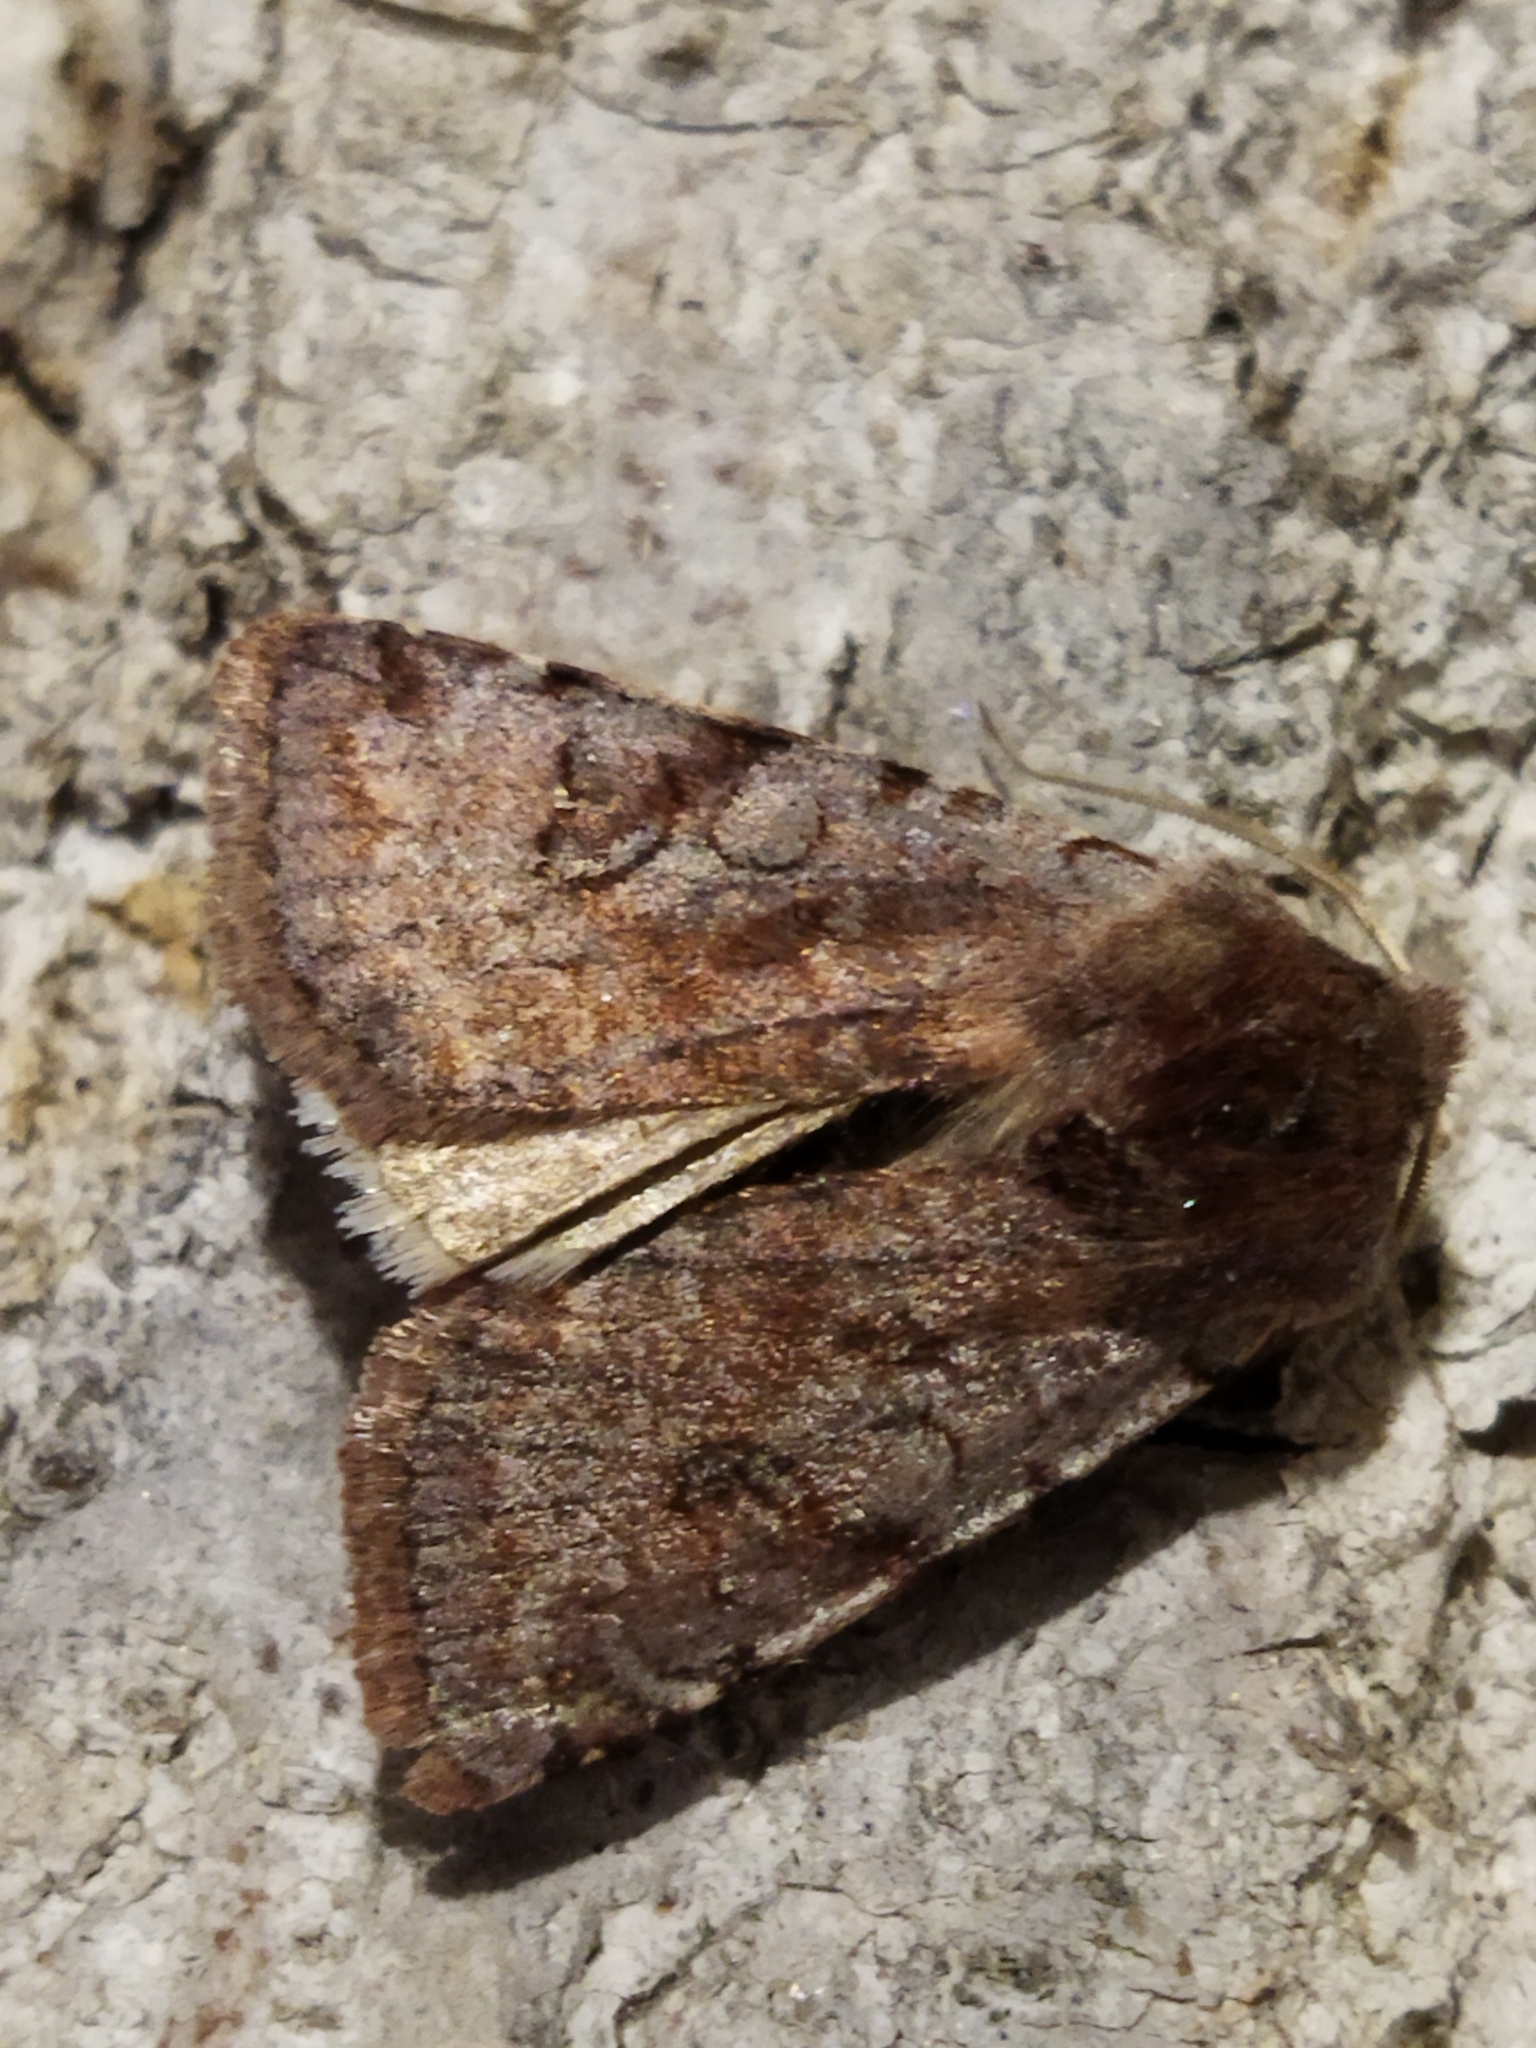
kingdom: Animalia
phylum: Arthropoda
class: Insecta
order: Lepidoptera
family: Noctuidae
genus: Cerastis
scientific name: Cerastis rubricosa
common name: Red chestnut
